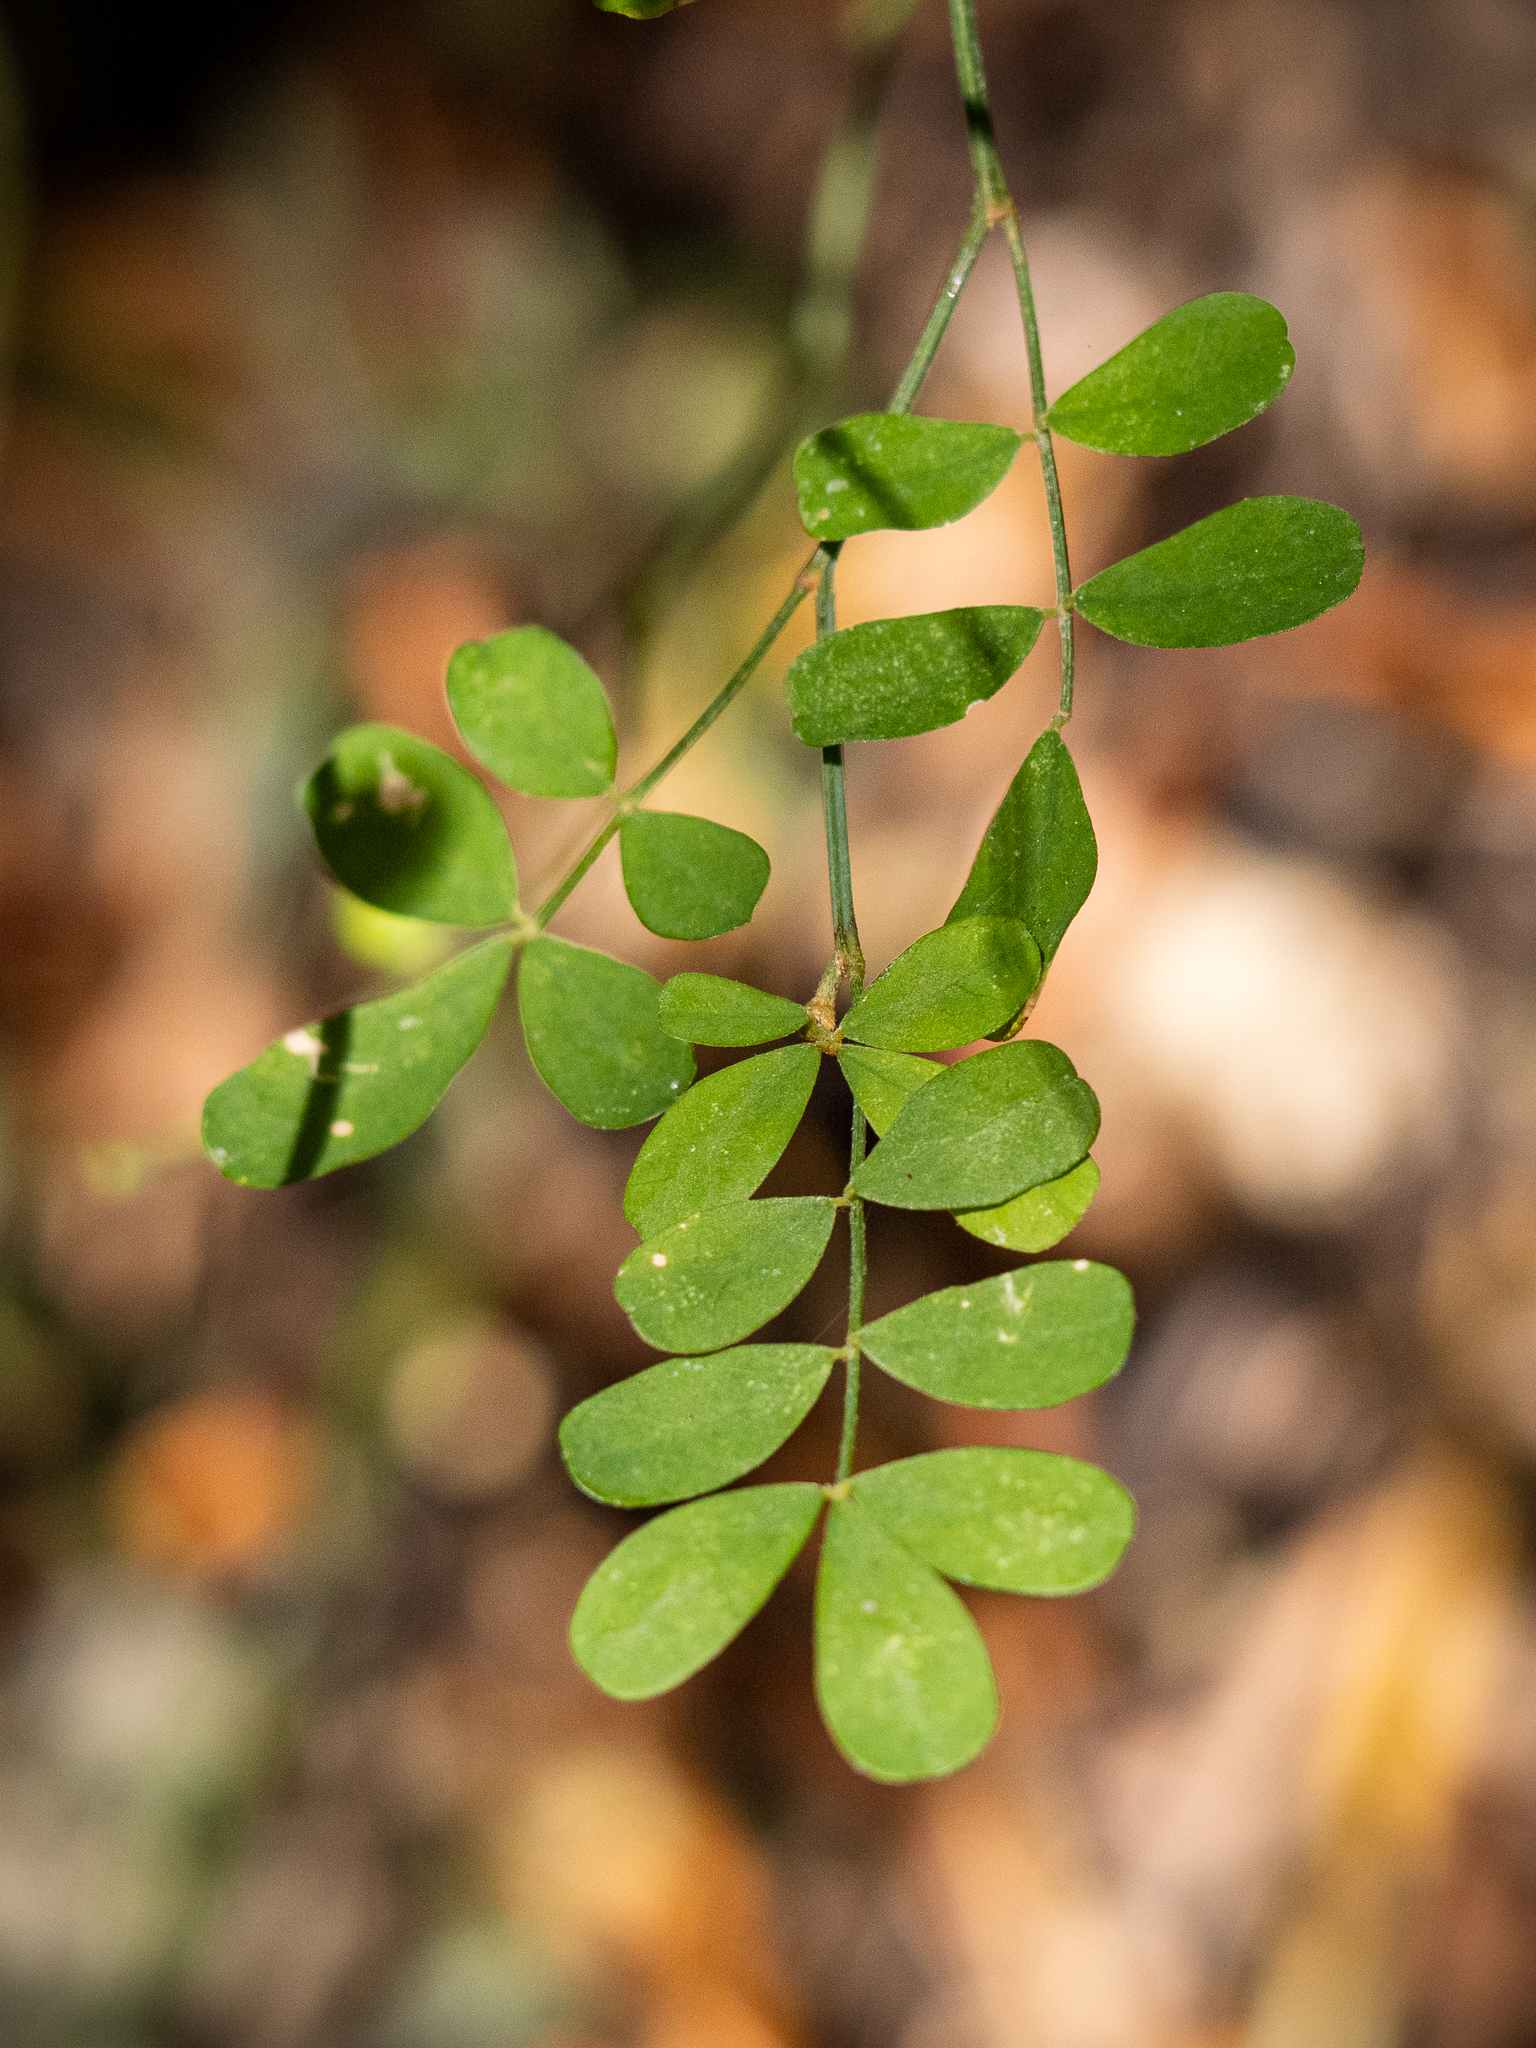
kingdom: Plantae
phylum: Tracheophyta
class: Magnoliopsida
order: Fabales
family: Fabaceae
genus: Hippocrepis
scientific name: Hippocrepis emerus
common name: Scorpion senna
